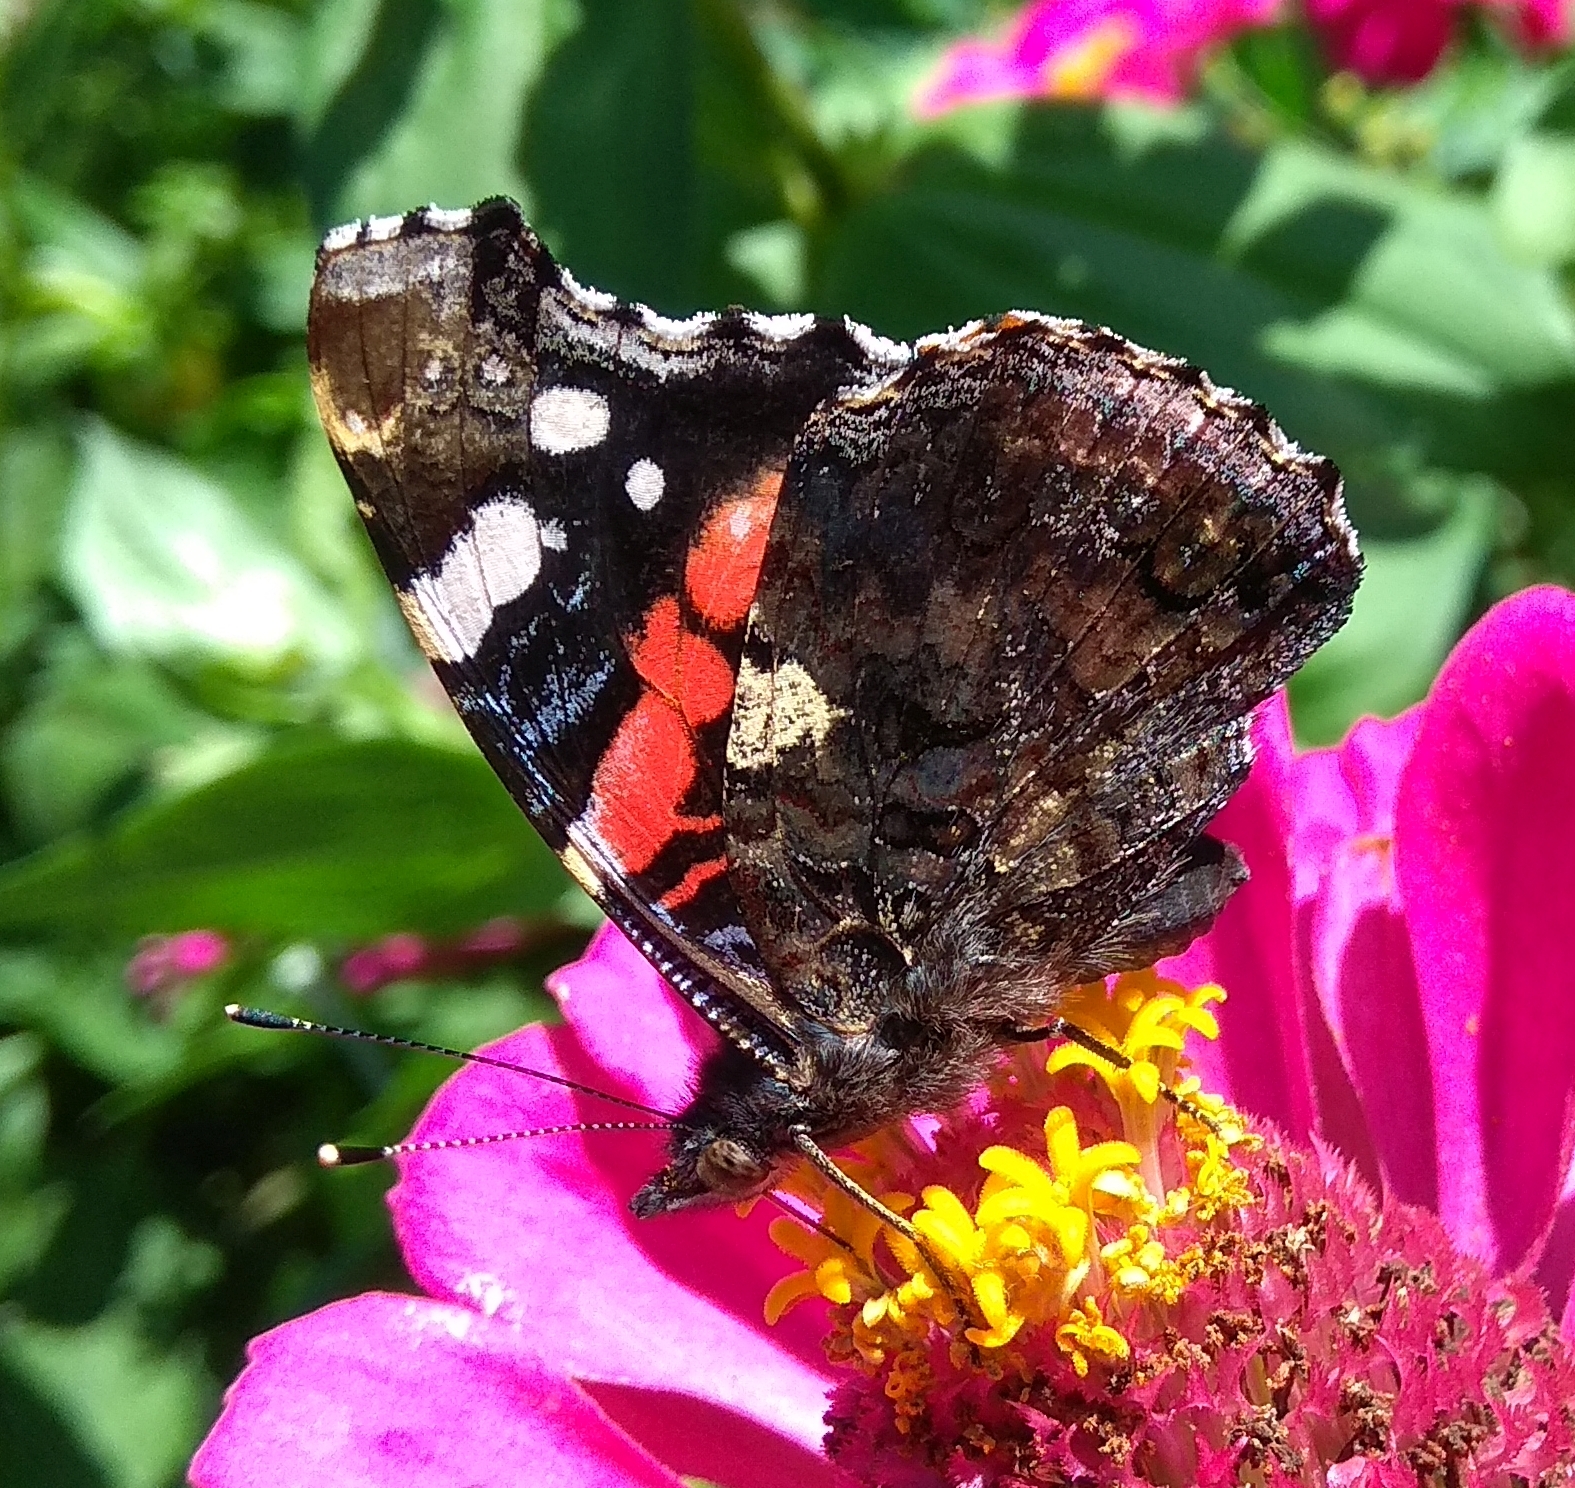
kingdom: Animalia
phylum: Arthropoda
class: Insecta
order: Lepidoptera
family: Nymphalidae
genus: Vanessa
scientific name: Vanessa atalanta
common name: Red admiral
